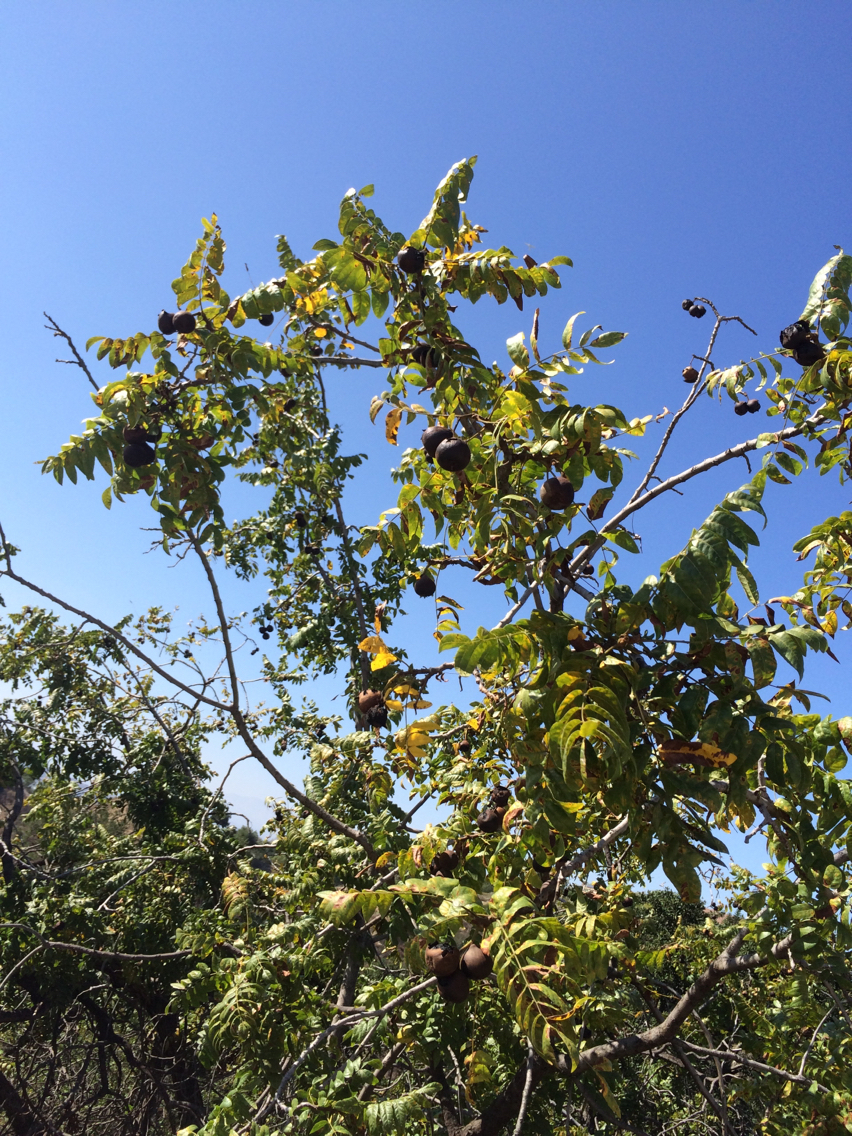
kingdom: Plantae
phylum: Tracheophyta
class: Magnoliopsida
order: Fagales
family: Juglandaceae
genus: Juglans
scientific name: Juglans californica
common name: Southern california black walnut
